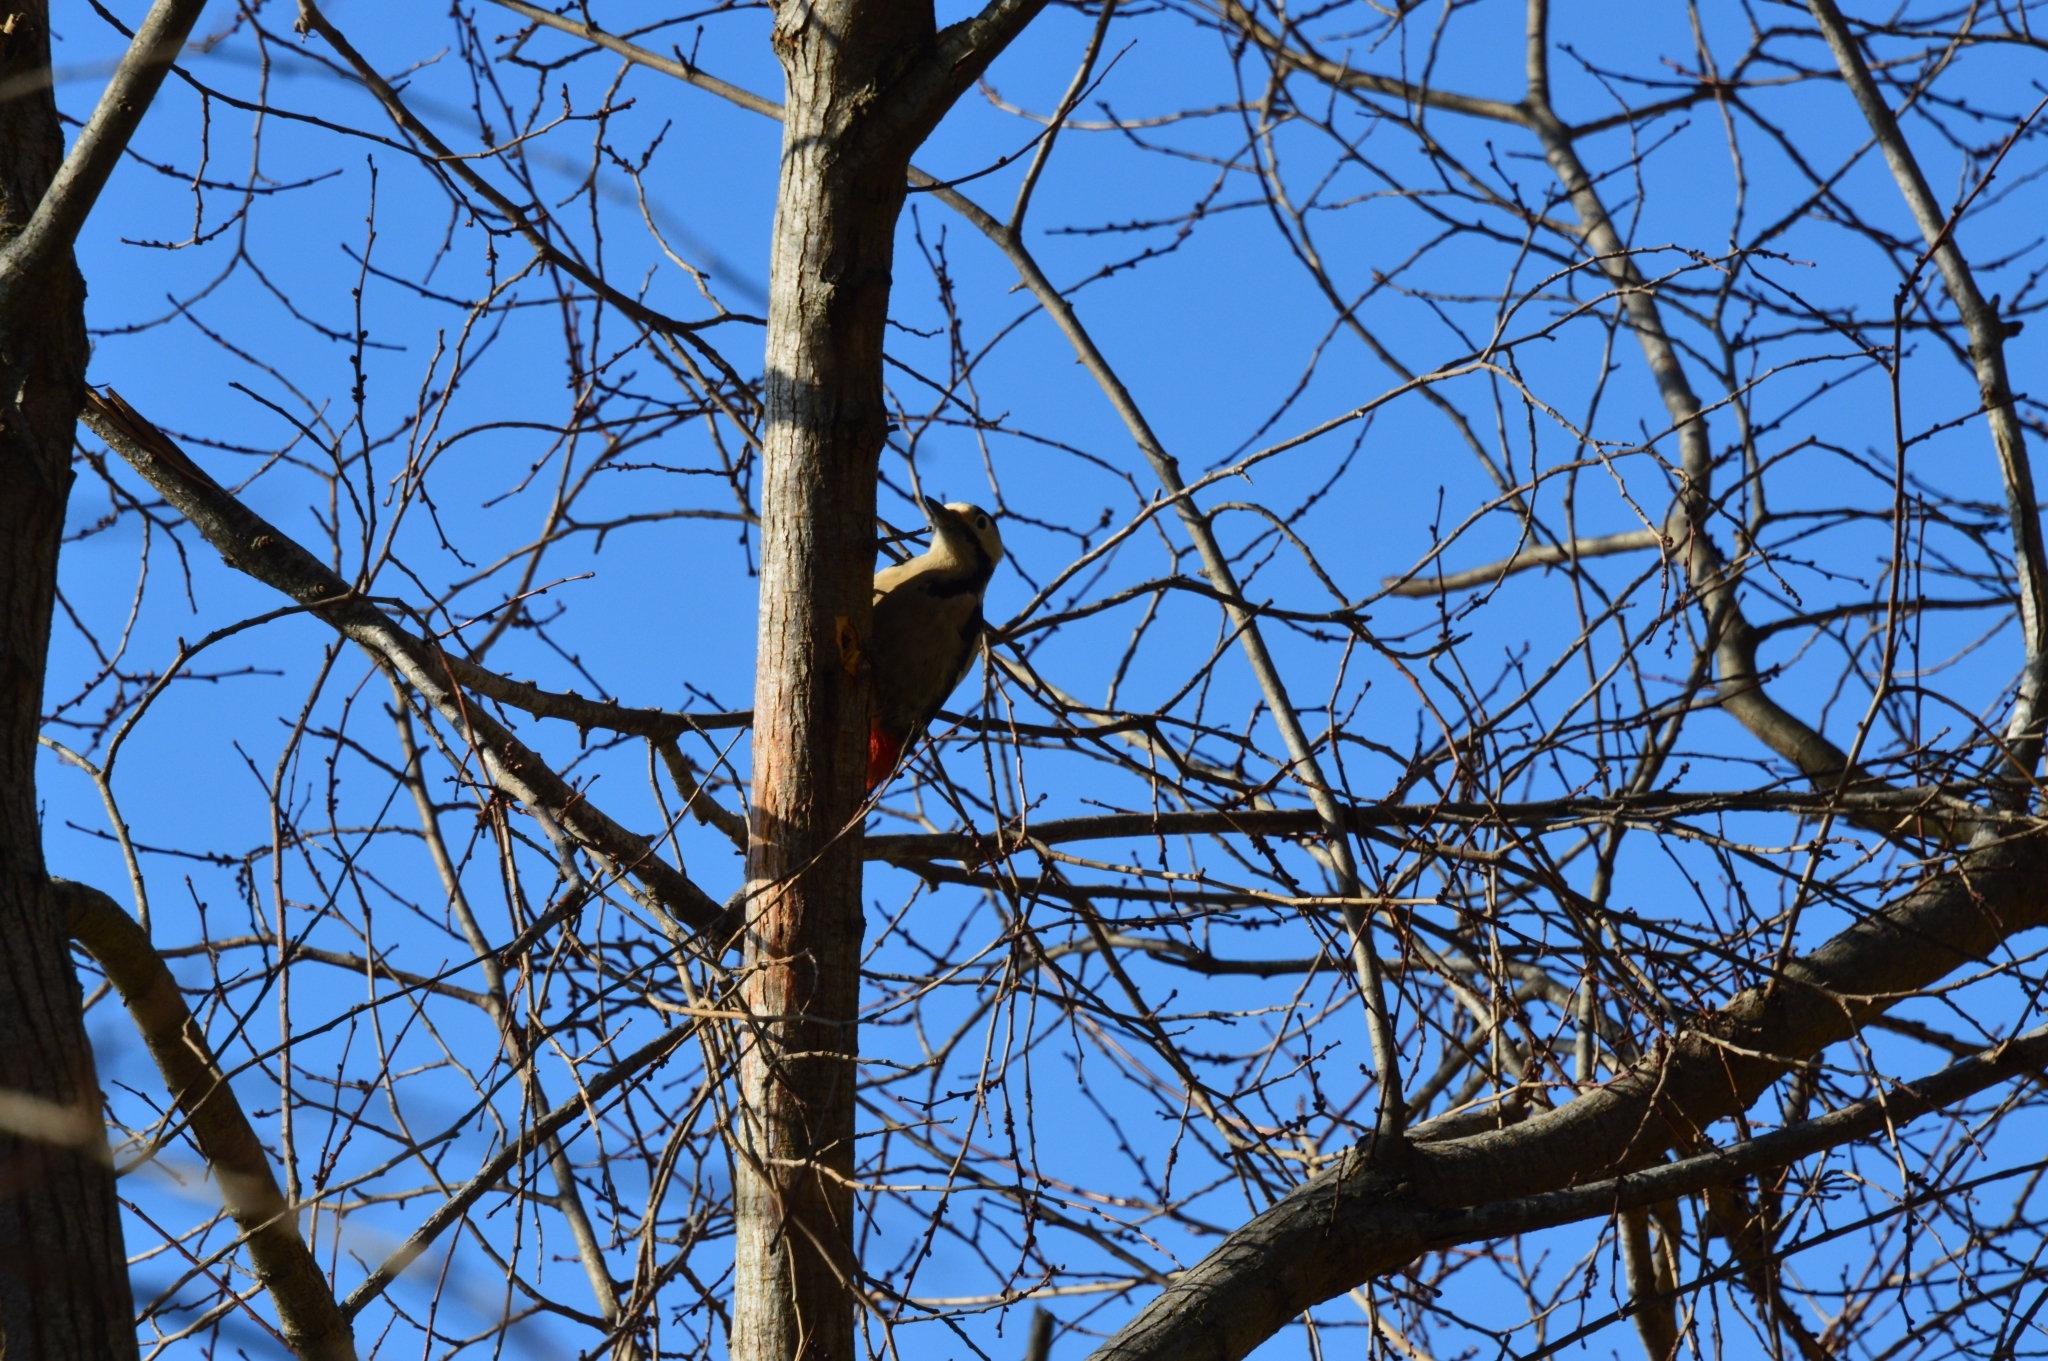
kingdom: Animalia
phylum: Chordata
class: Aves
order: Piciformes
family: Picidae
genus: Dendrocopos
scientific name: Dendrocopos syriacus
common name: Syrian woodpecker
